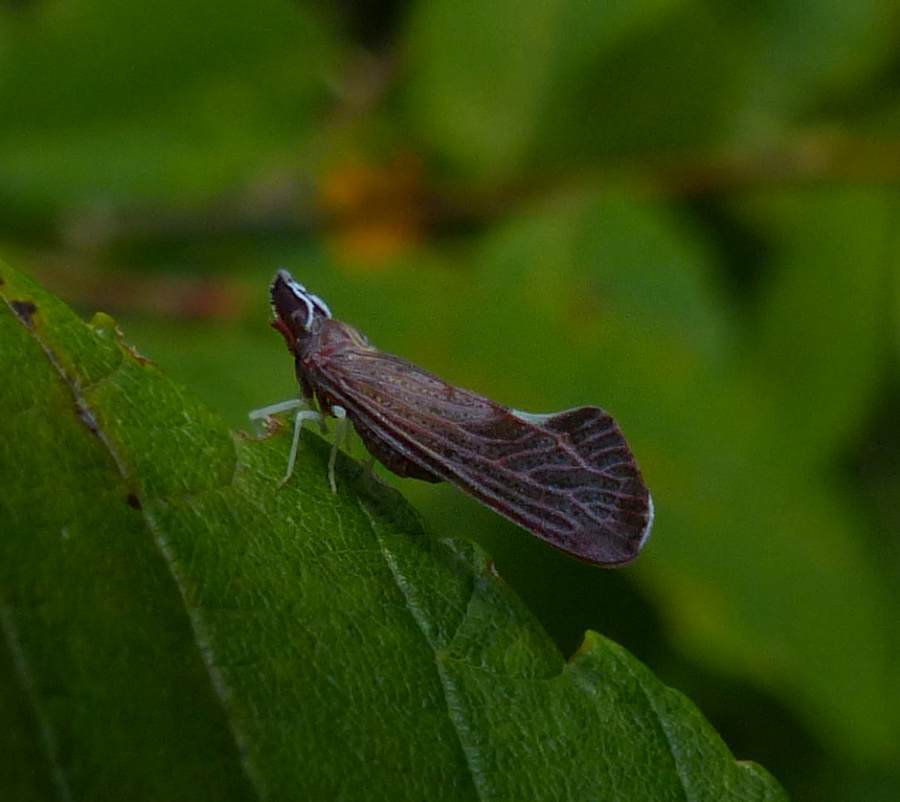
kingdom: Animalia
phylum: Arthropoda
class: Insecta
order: Hemiptera
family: Derbidae
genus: Apache
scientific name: Apache degeeri
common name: Red-fanned planthopper
